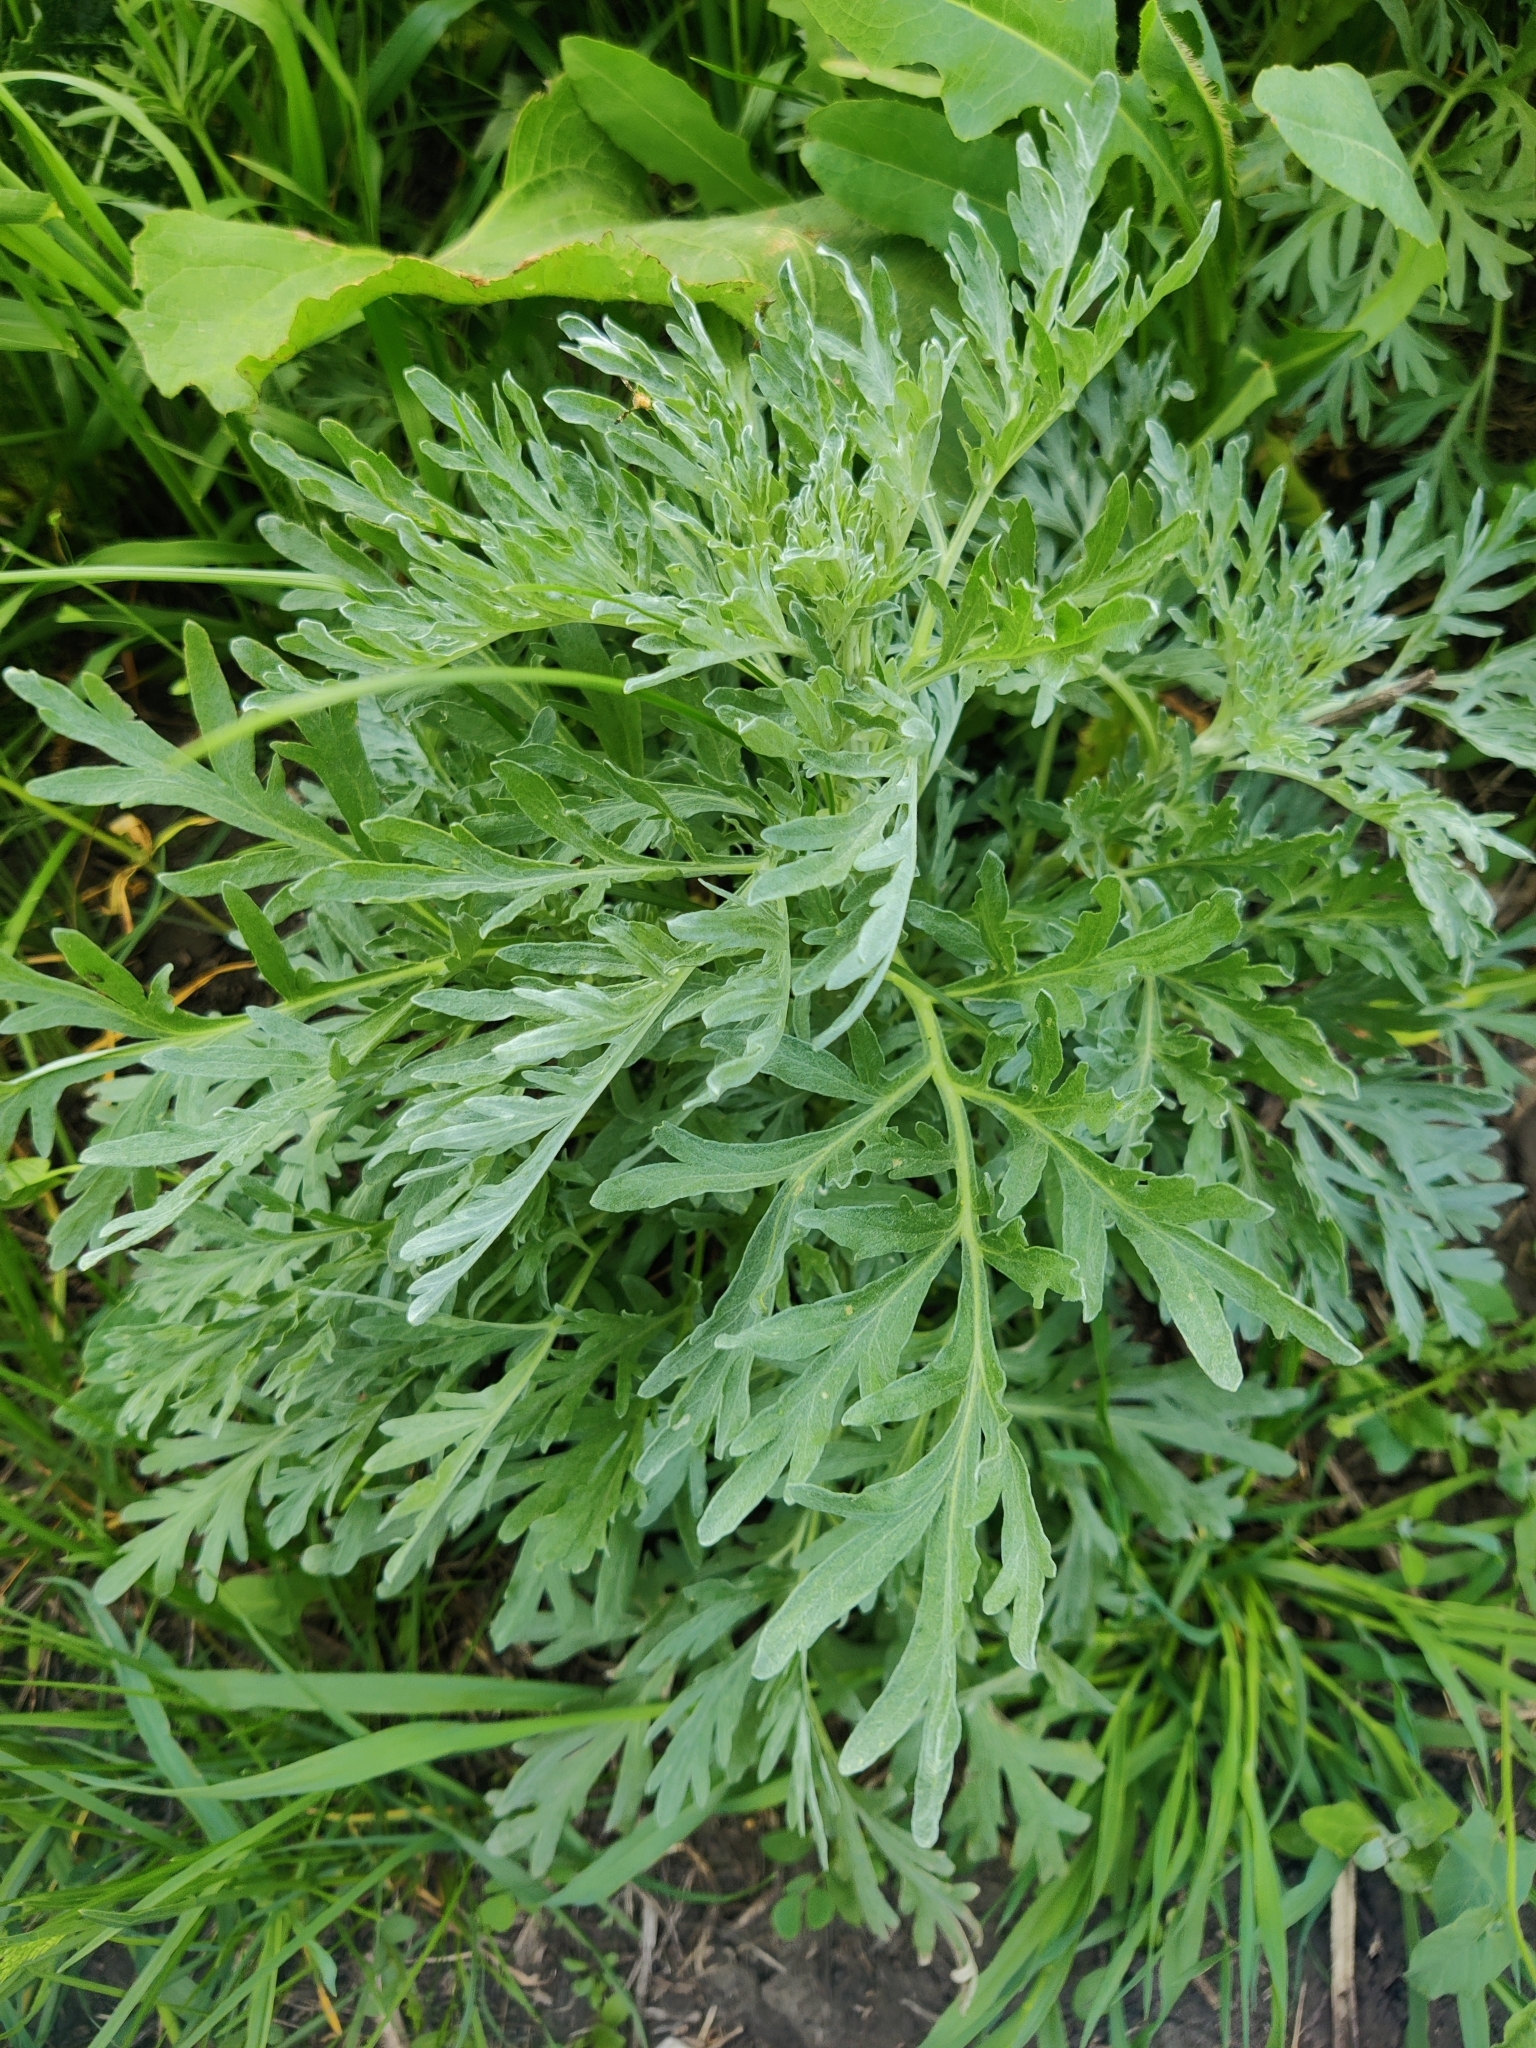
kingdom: Plantae
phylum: Tracheophyta
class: Magnoliopsida
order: Asterales
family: Asteraceae
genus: Artemisia
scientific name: Artemisia absinthium
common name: Wormwood
